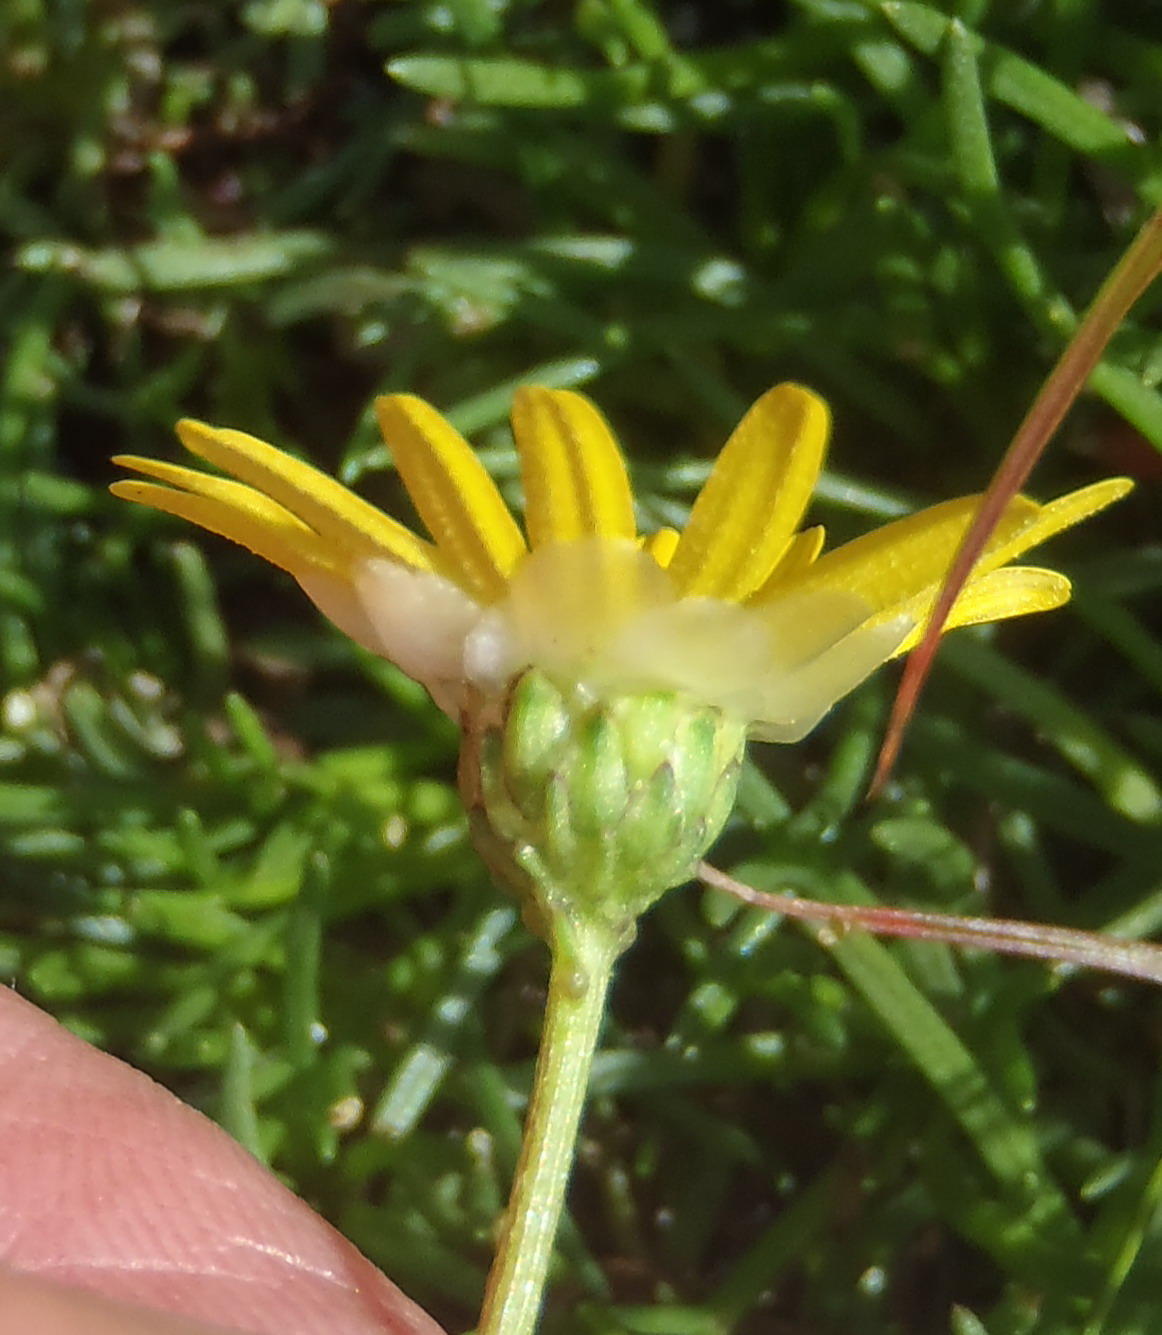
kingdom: Plantae
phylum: Tracheophyta
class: Magnoliopsida
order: Asterales
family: Asteraceae
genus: Ursinia
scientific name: Ursinia tenuifolia
